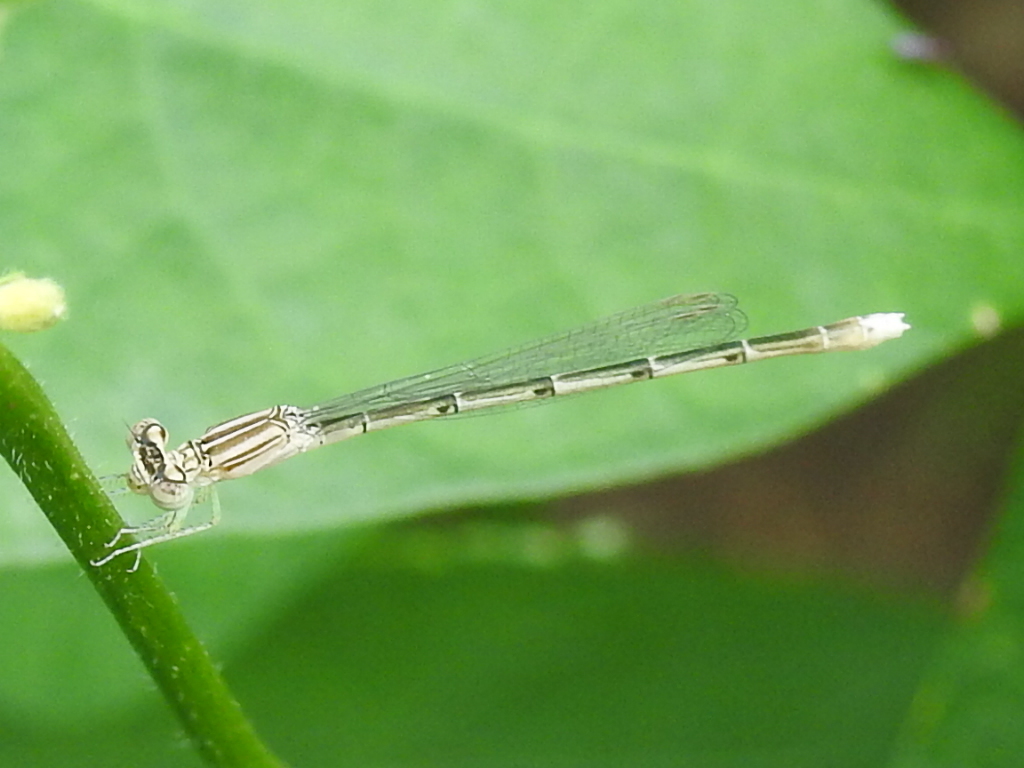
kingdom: Animalia
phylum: Arthropoda
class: Insecta
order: Odonata
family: Coenagrionidae
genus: Enallagma
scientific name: Enallagma basidens
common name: Double-striped bluet
